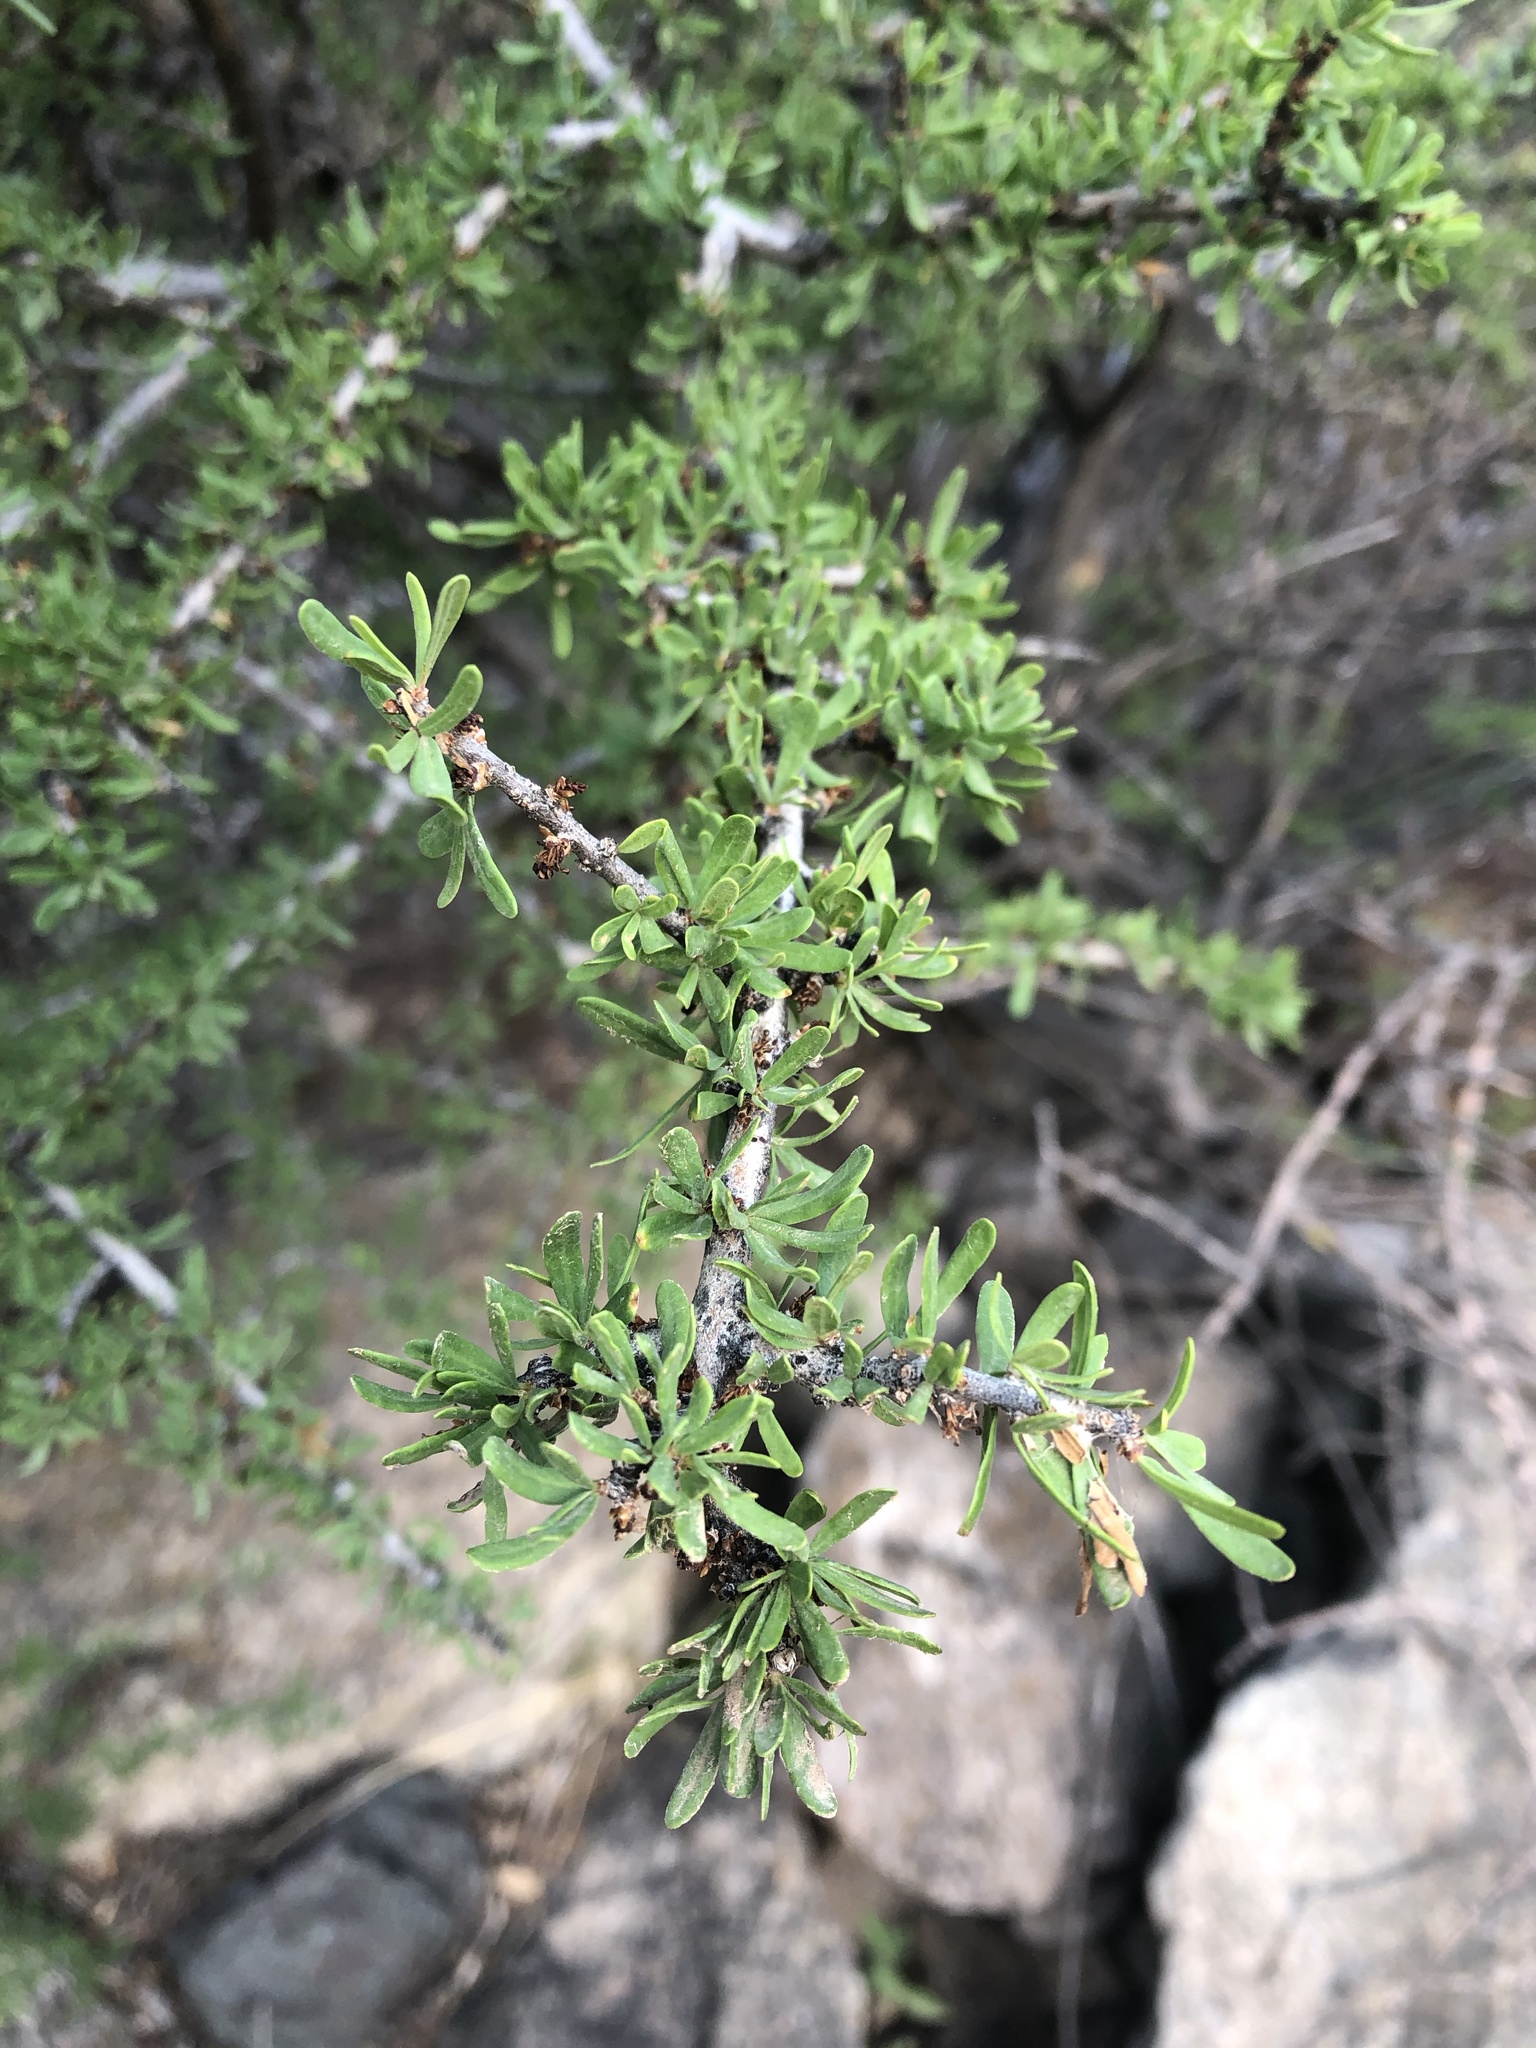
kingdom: Plantae
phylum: Tracheophyta
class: Magnoliopsida
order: Lamiales
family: Oleaceae
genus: Forestiera
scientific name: Forestiera angustifolia
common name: Elbowbush
